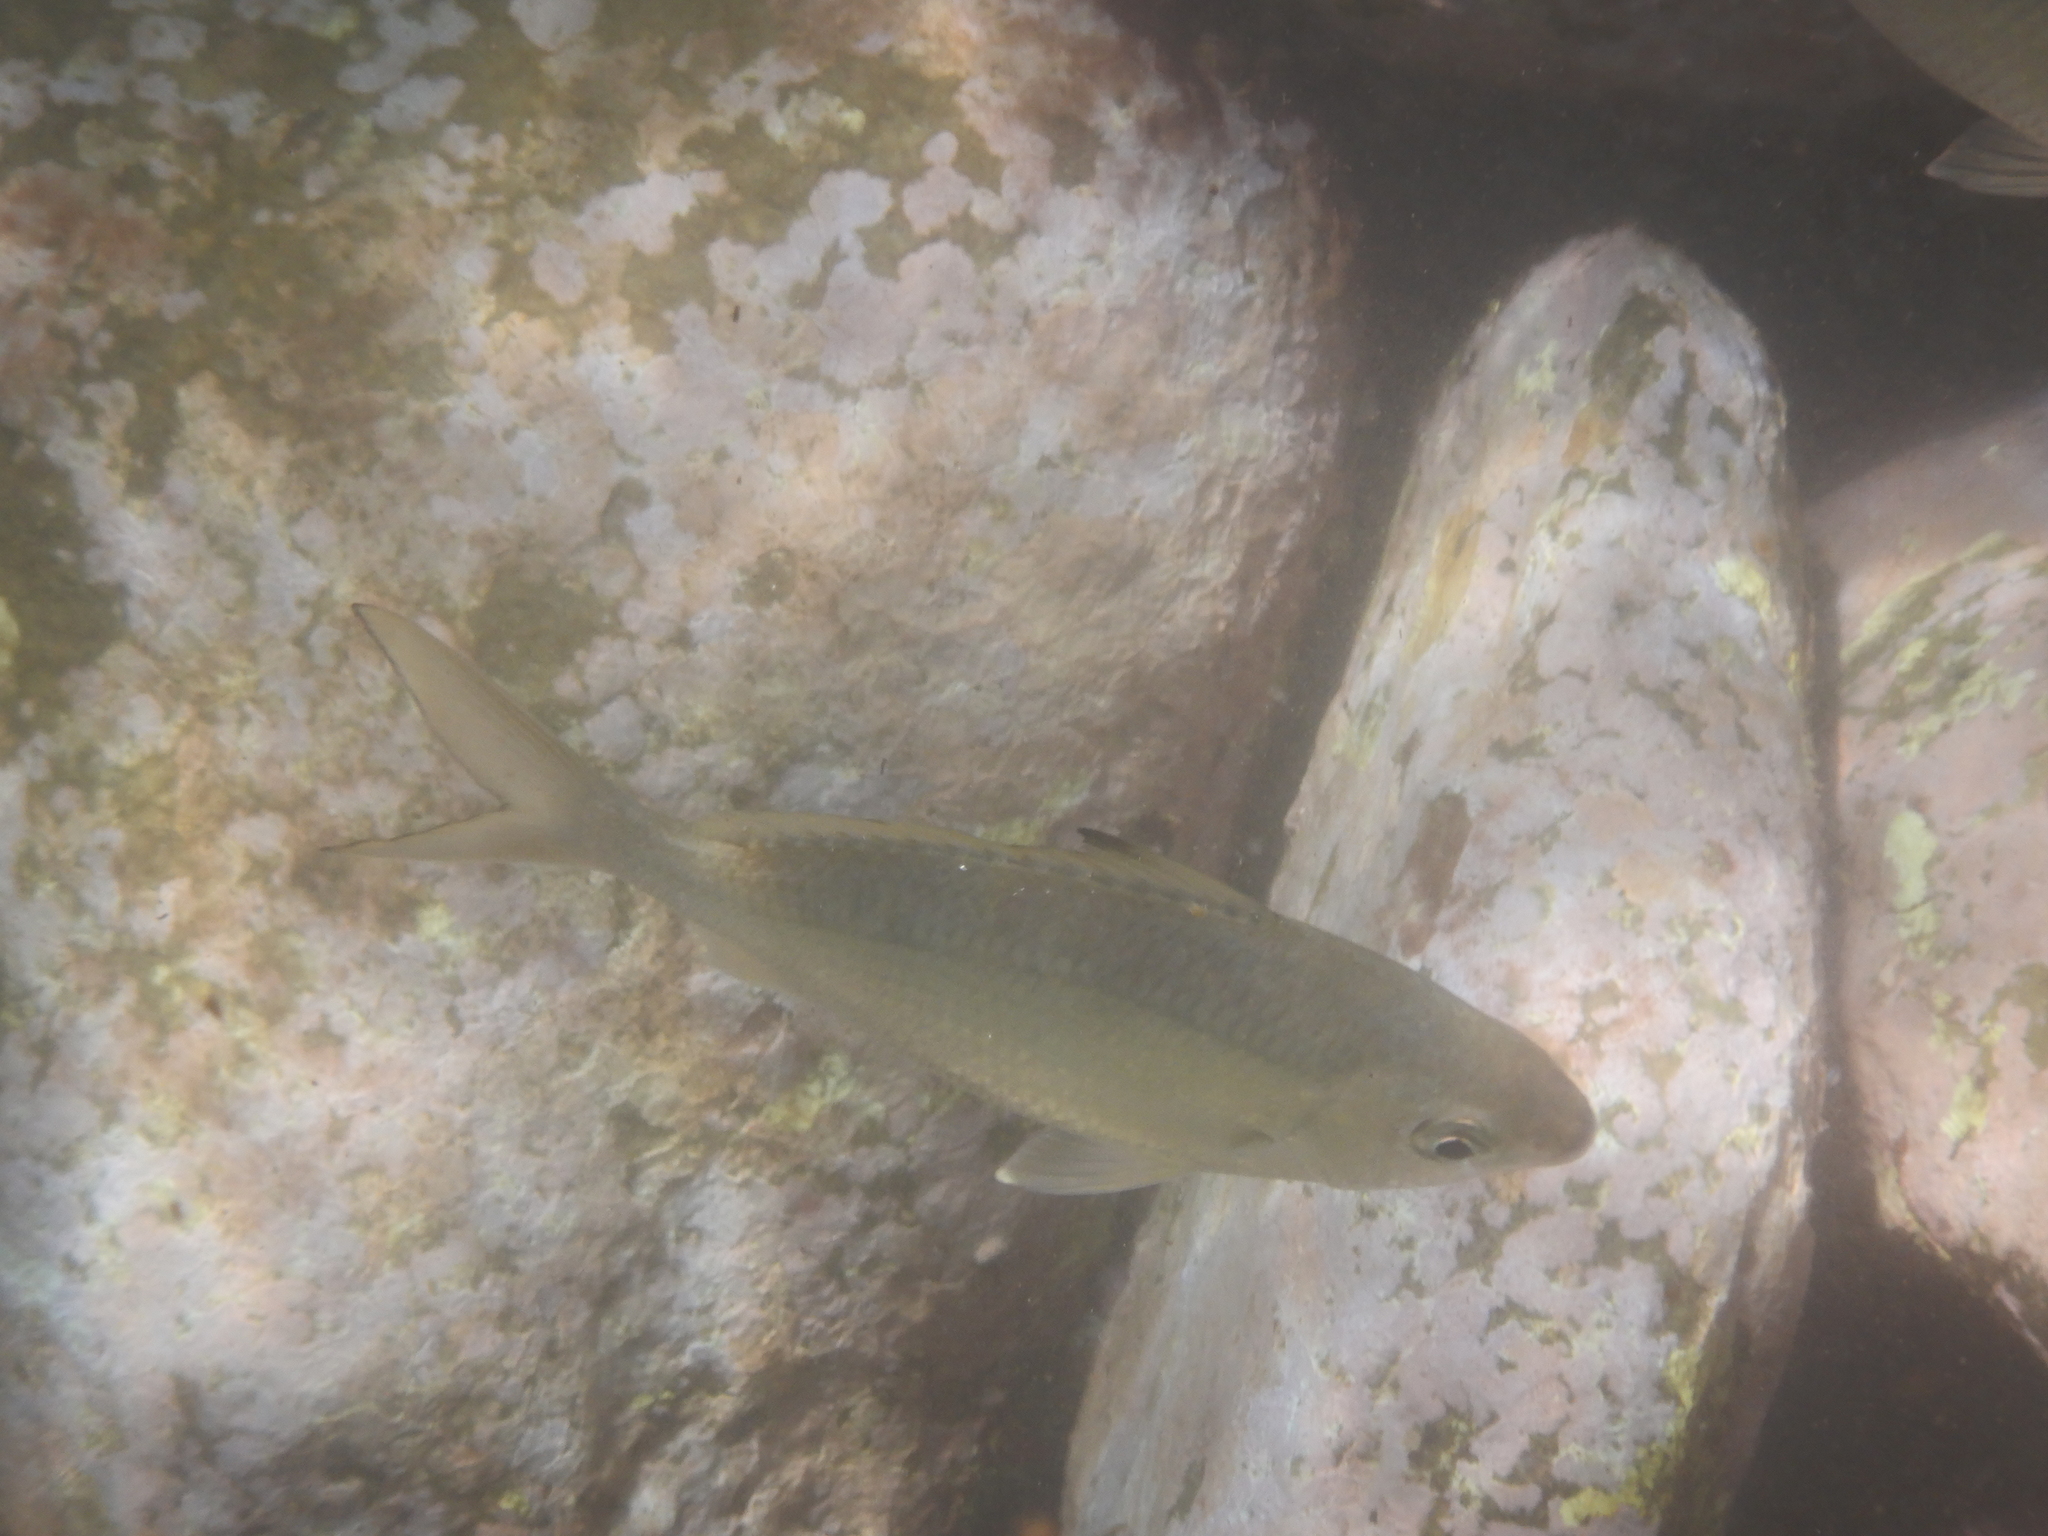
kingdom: Animalia
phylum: Chordata
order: Perciformes
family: Gerreidae
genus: Gerres
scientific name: Gerres subfasciatus
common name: Common silver belly
